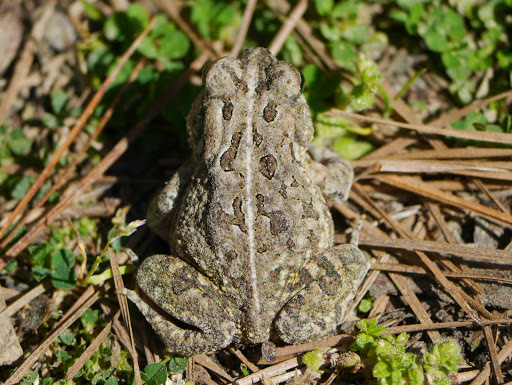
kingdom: Animalia
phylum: Chordata
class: Amphibia
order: Anura
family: Bufonidae
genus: Anaxyrus
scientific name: Anaxyrus fowleri
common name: Fowler's toad
